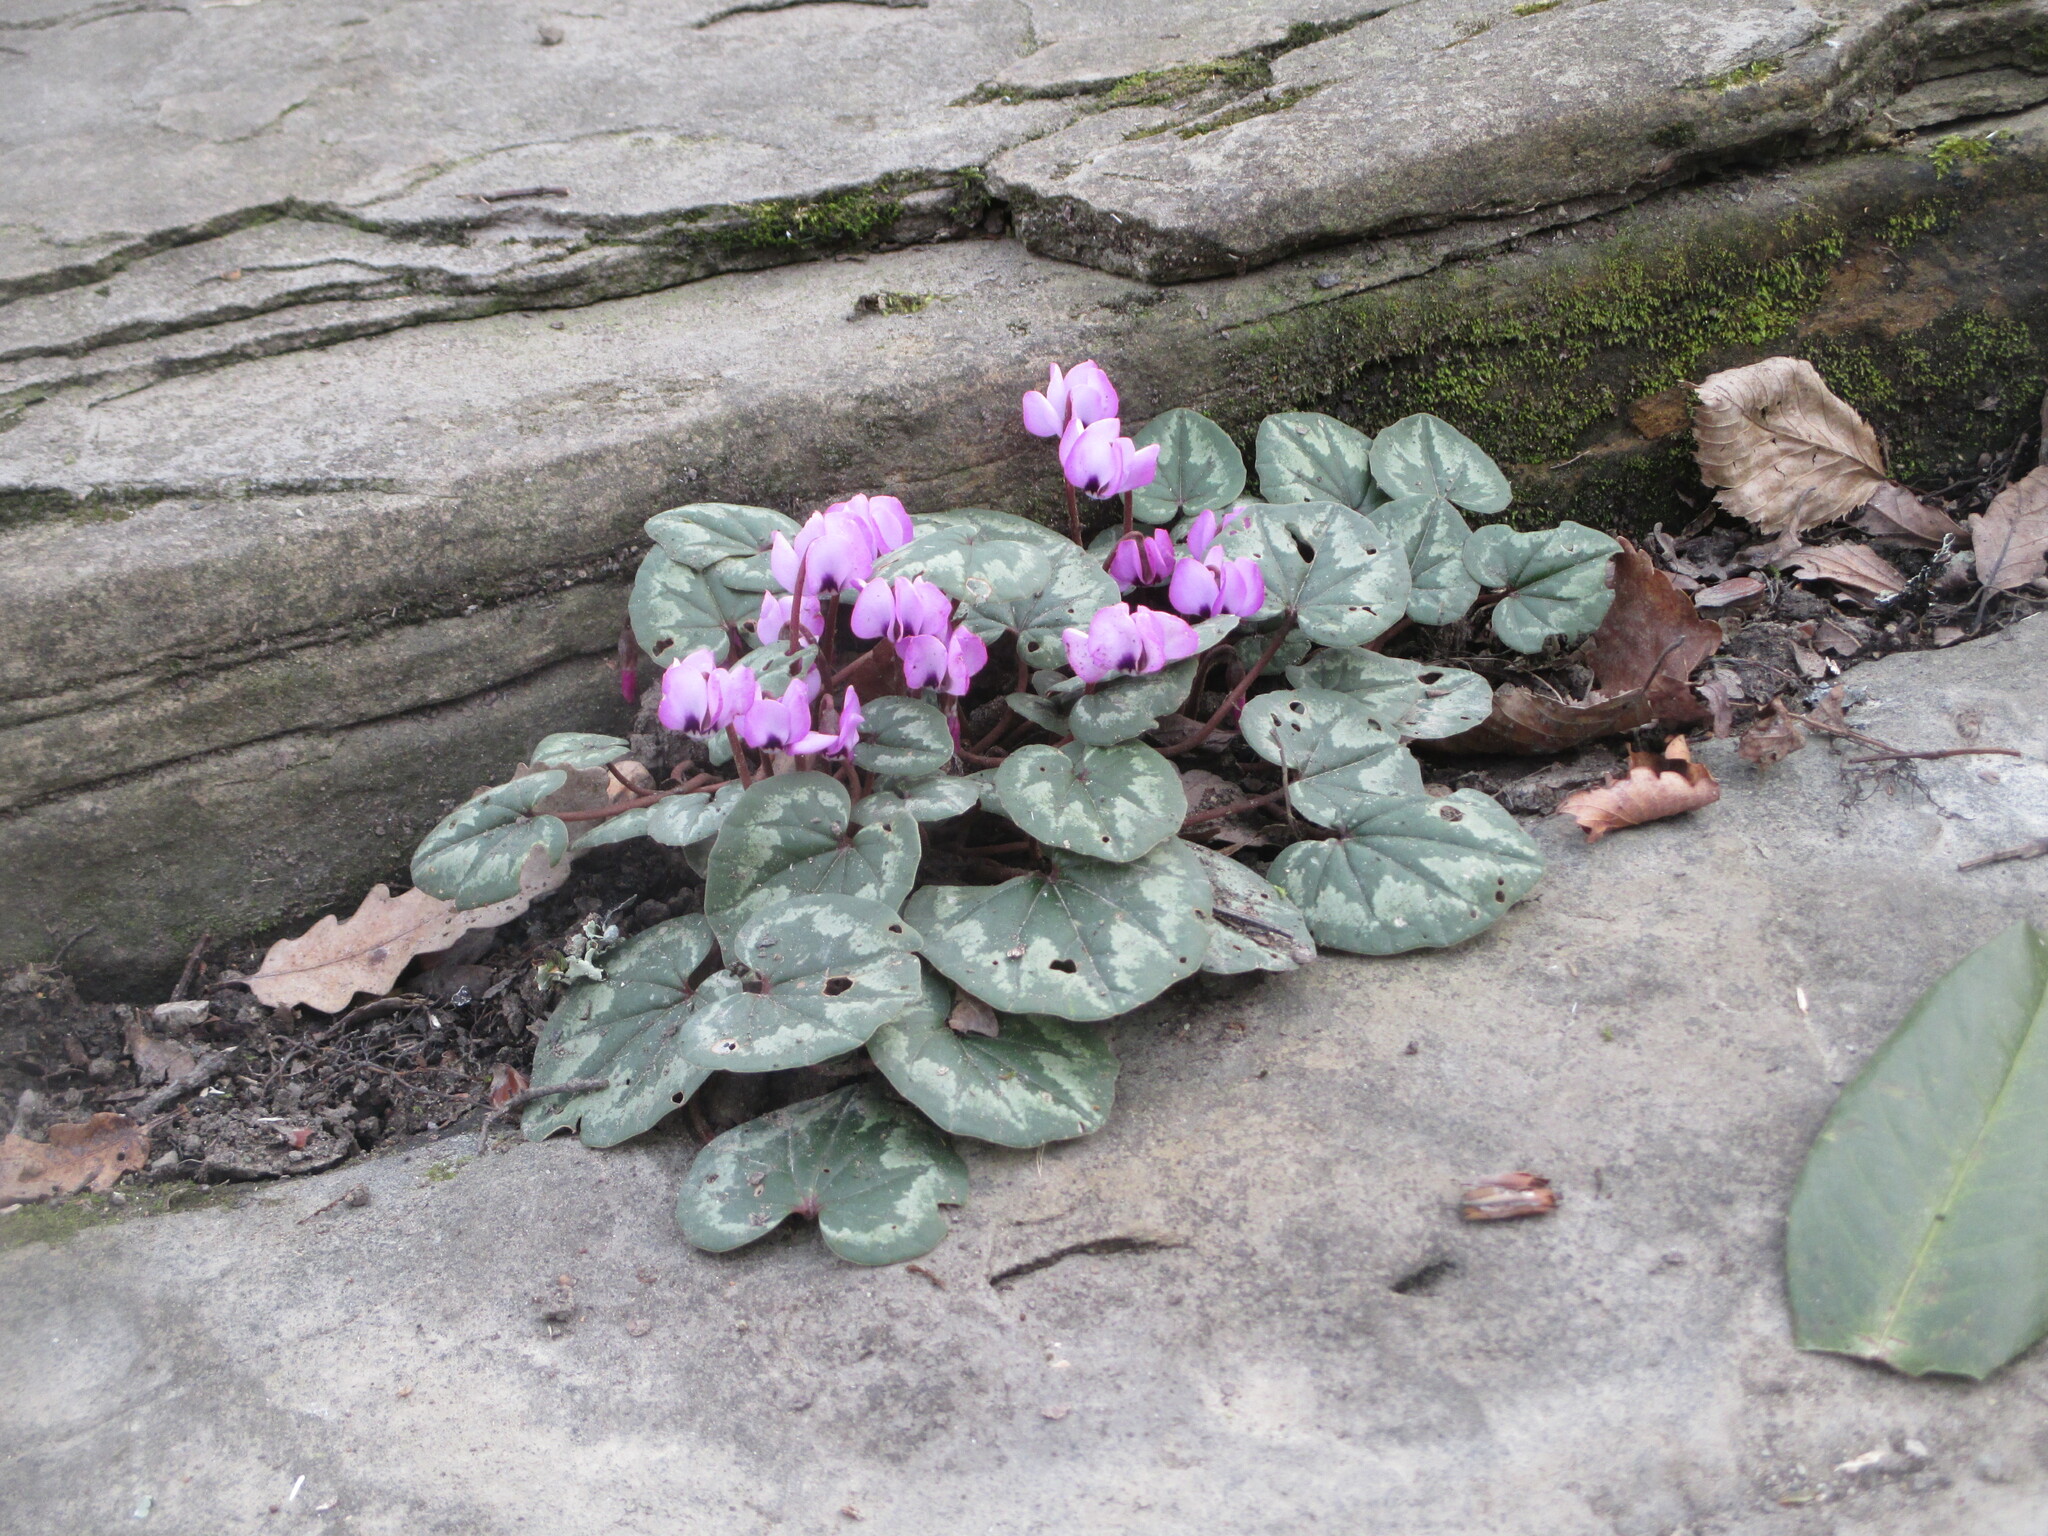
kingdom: Plantae
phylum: Tracheophyta
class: Magnoliopsida
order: Ericales
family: Primulaceae
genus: Cyclamen
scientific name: Cyclamen coum
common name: Eastern sowbread
